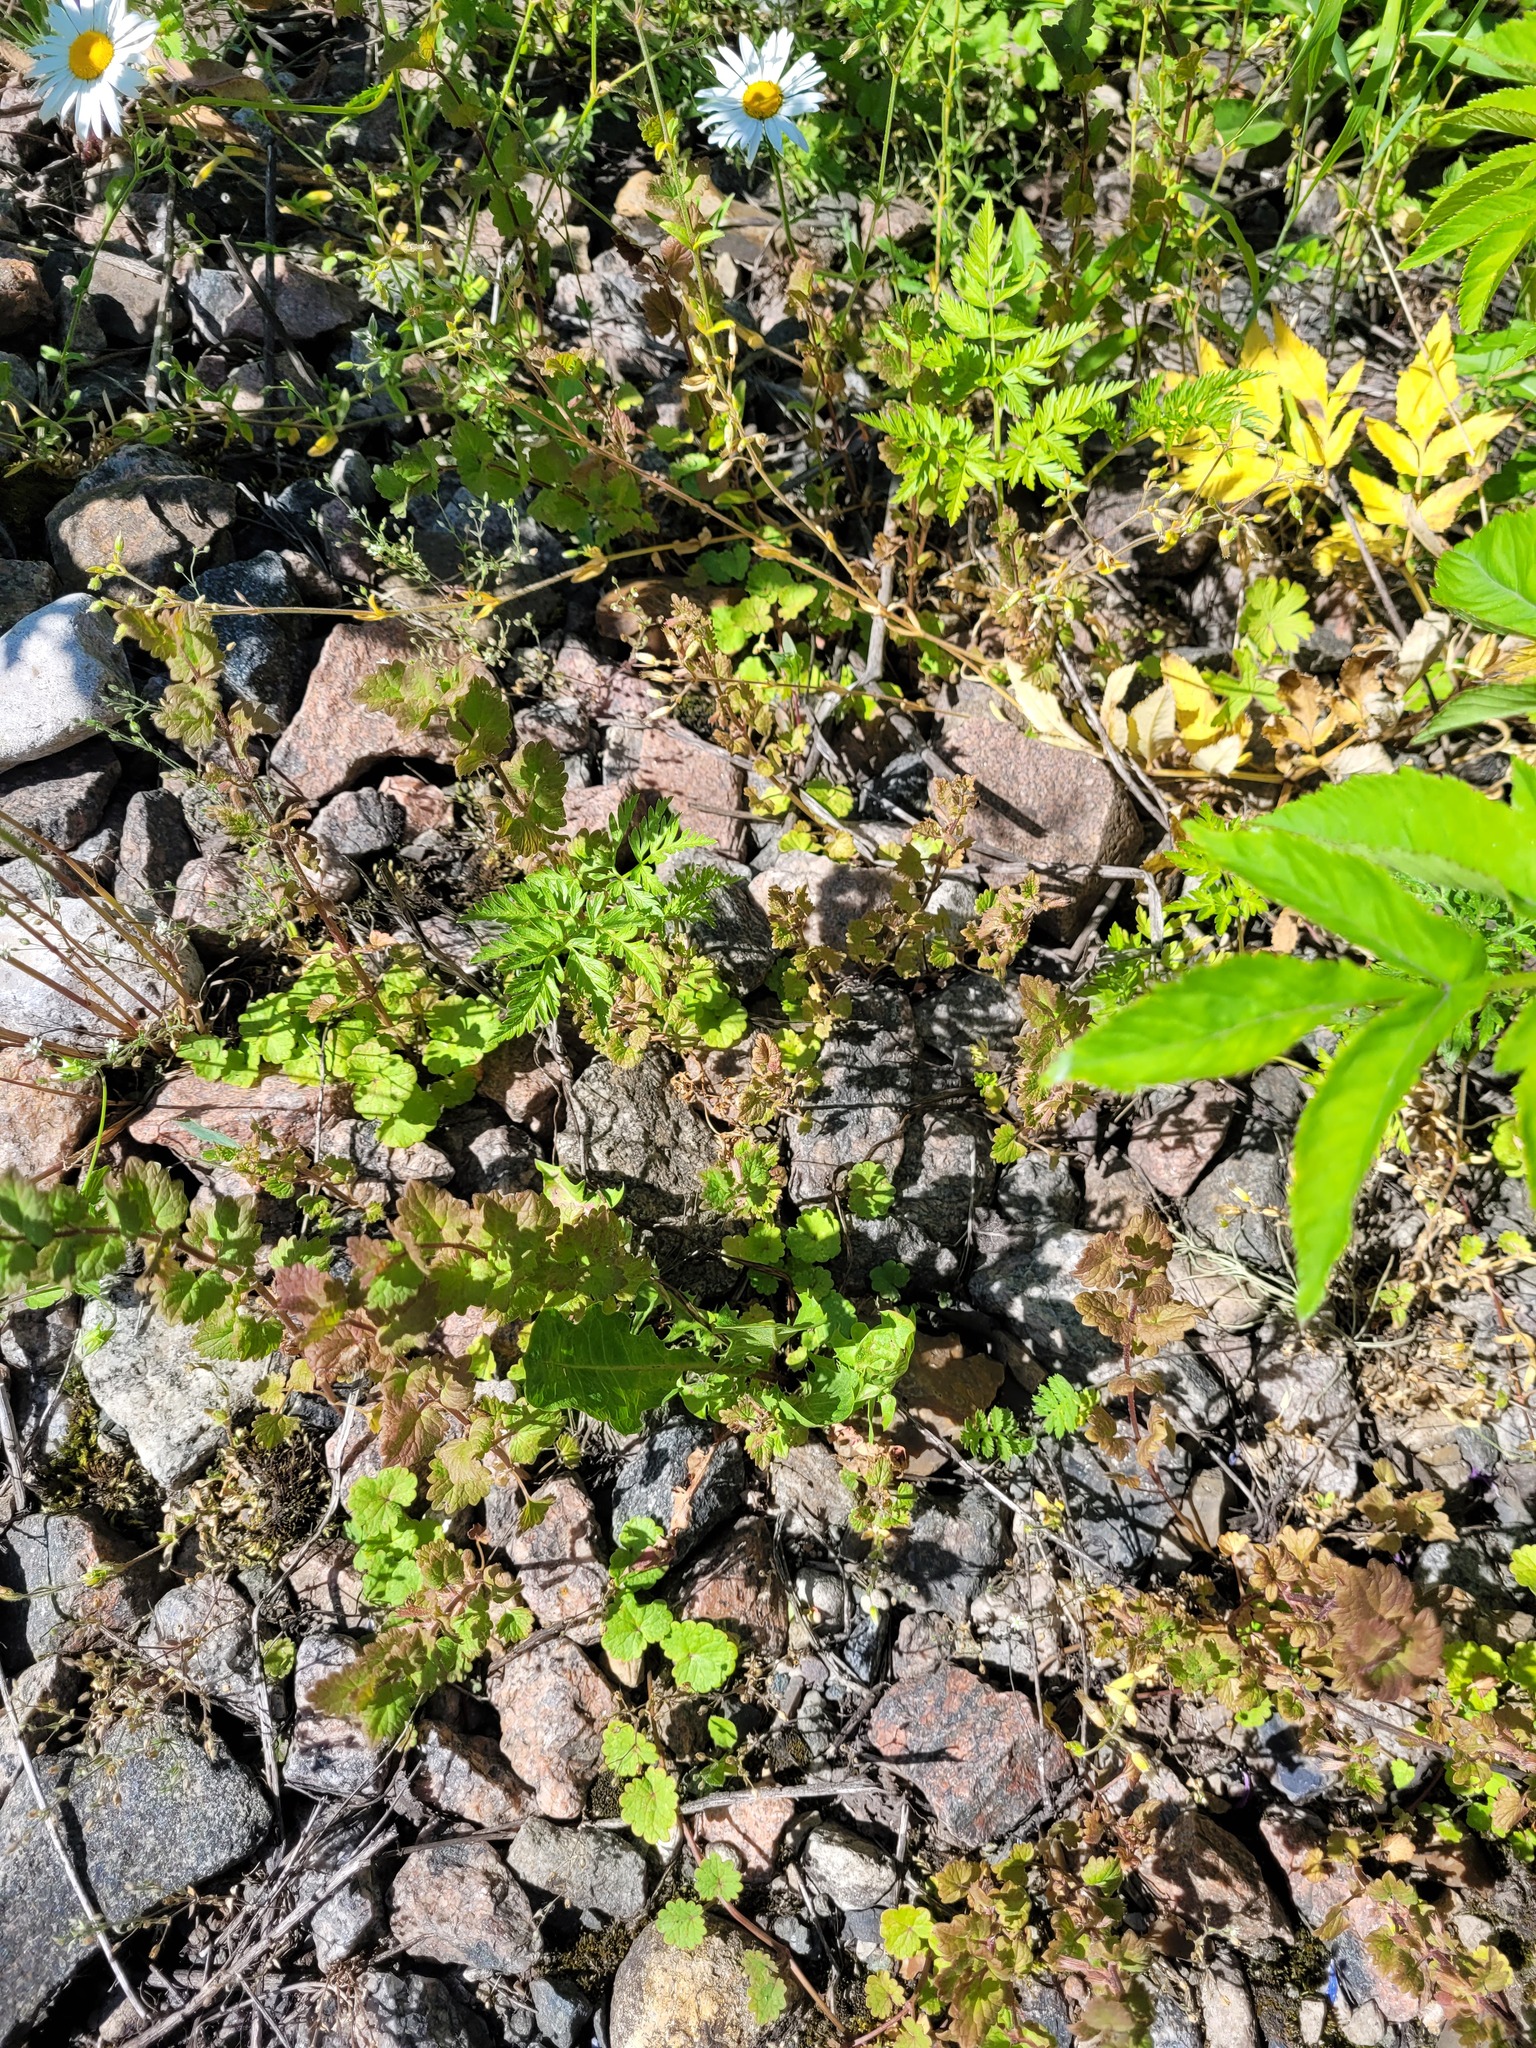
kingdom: Plantae
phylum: Tracheophyta
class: Magnoliopsida
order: Lamiales
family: Lamiaceae
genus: Glechoma
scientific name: Glechoma hederacea
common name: Ground ivy
